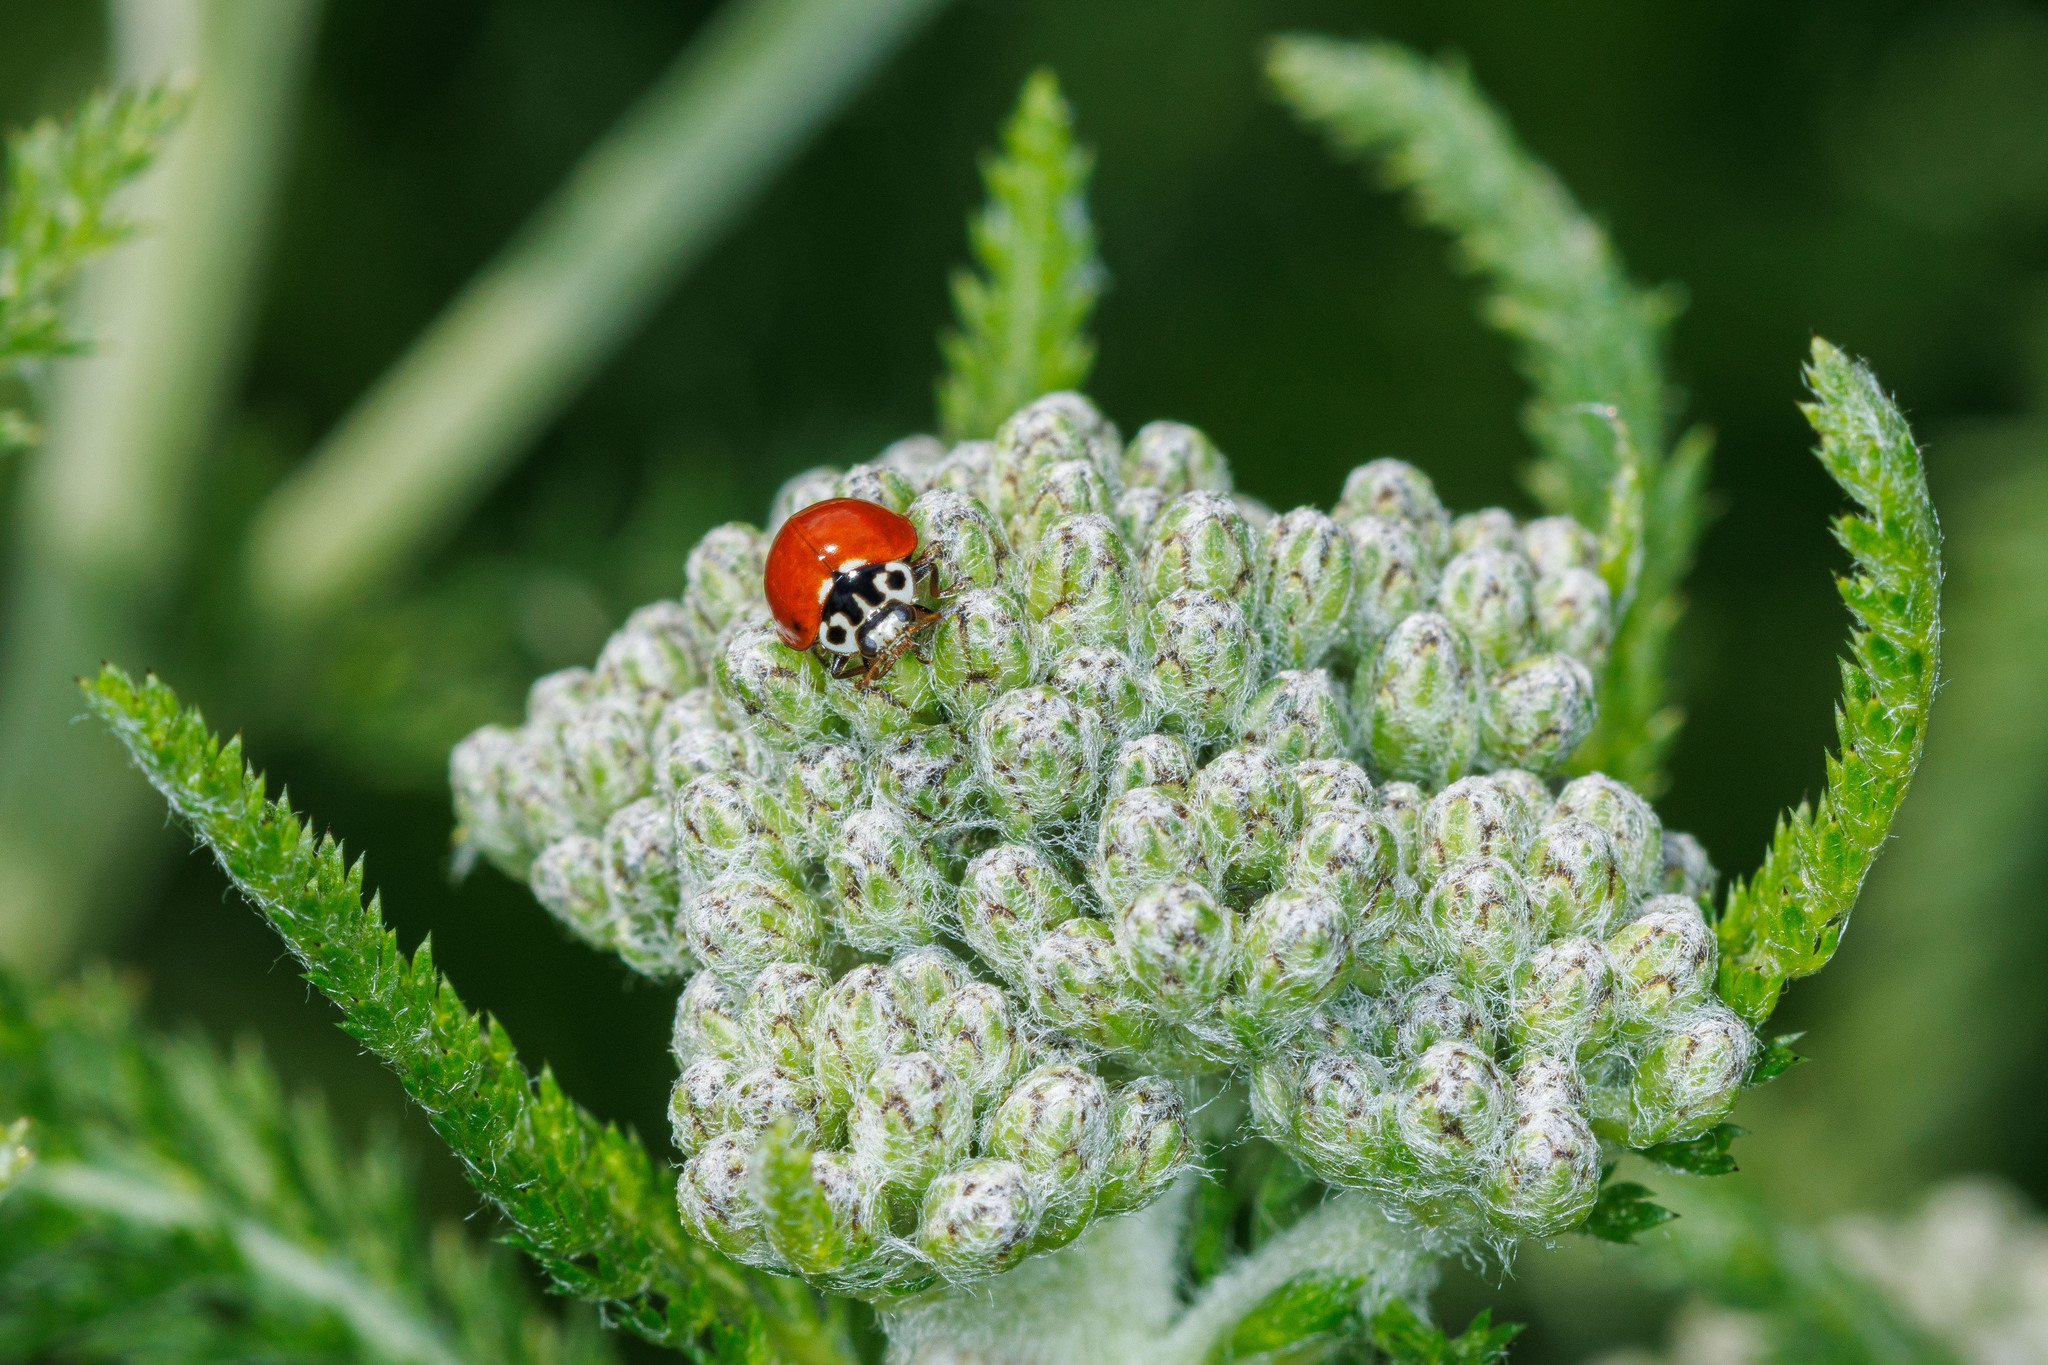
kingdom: Animalia
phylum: Arthropoda
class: Insecta
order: Coleoptera
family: Coccinellidae
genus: Cycloneda
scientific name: Cycloneda polita
